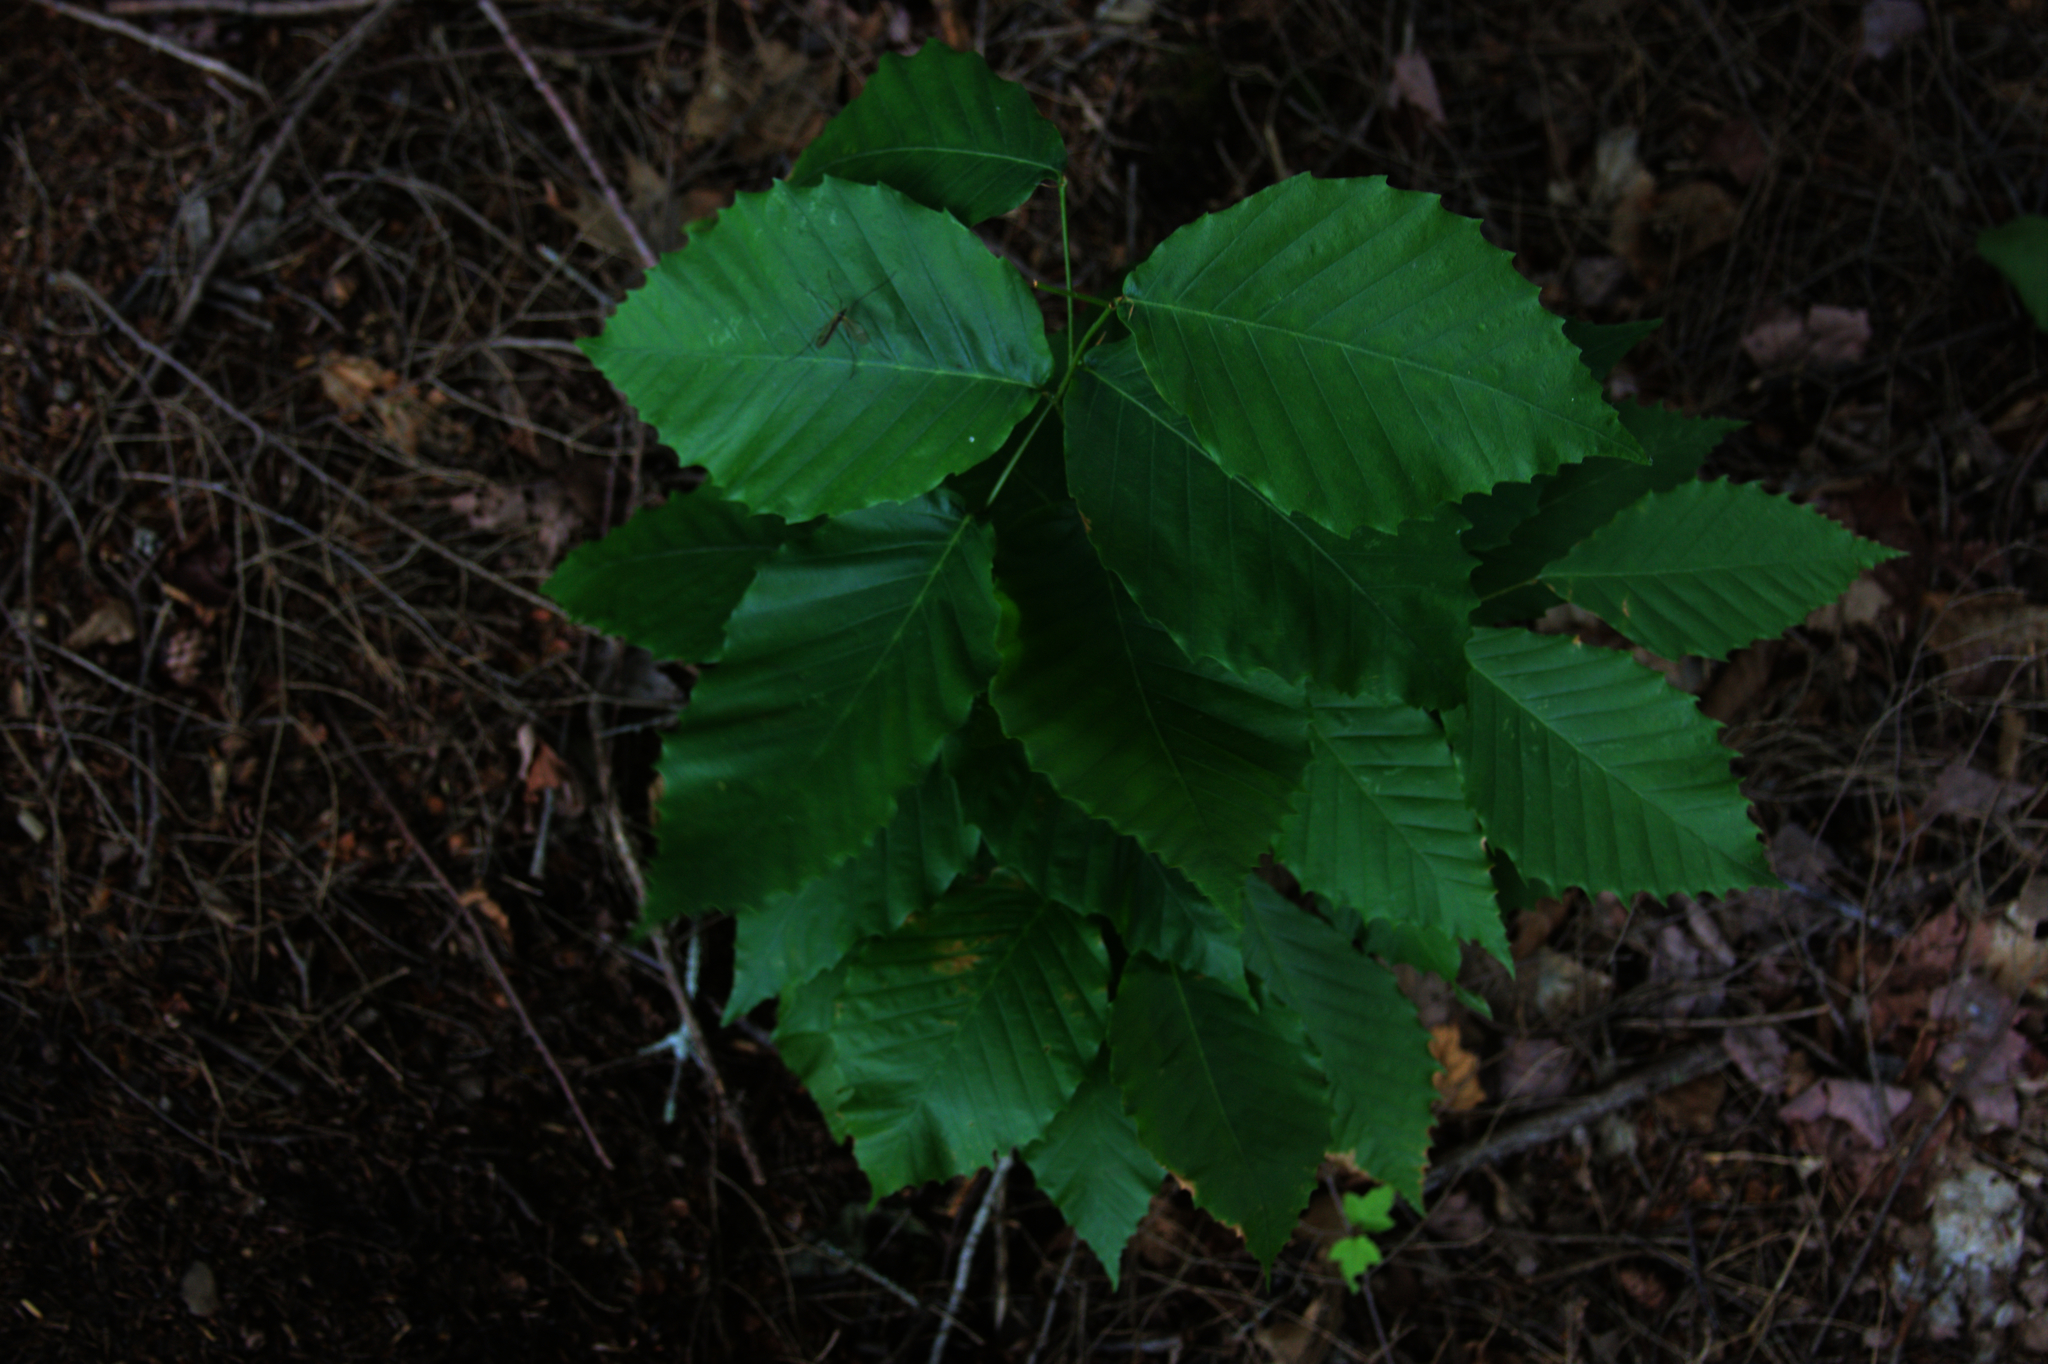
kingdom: Plantae
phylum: Tracheophyta
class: Magnoliopsida
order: Fagales
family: Fagaceae
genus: Fagus
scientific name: Fagus grandifolia
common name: American beech
